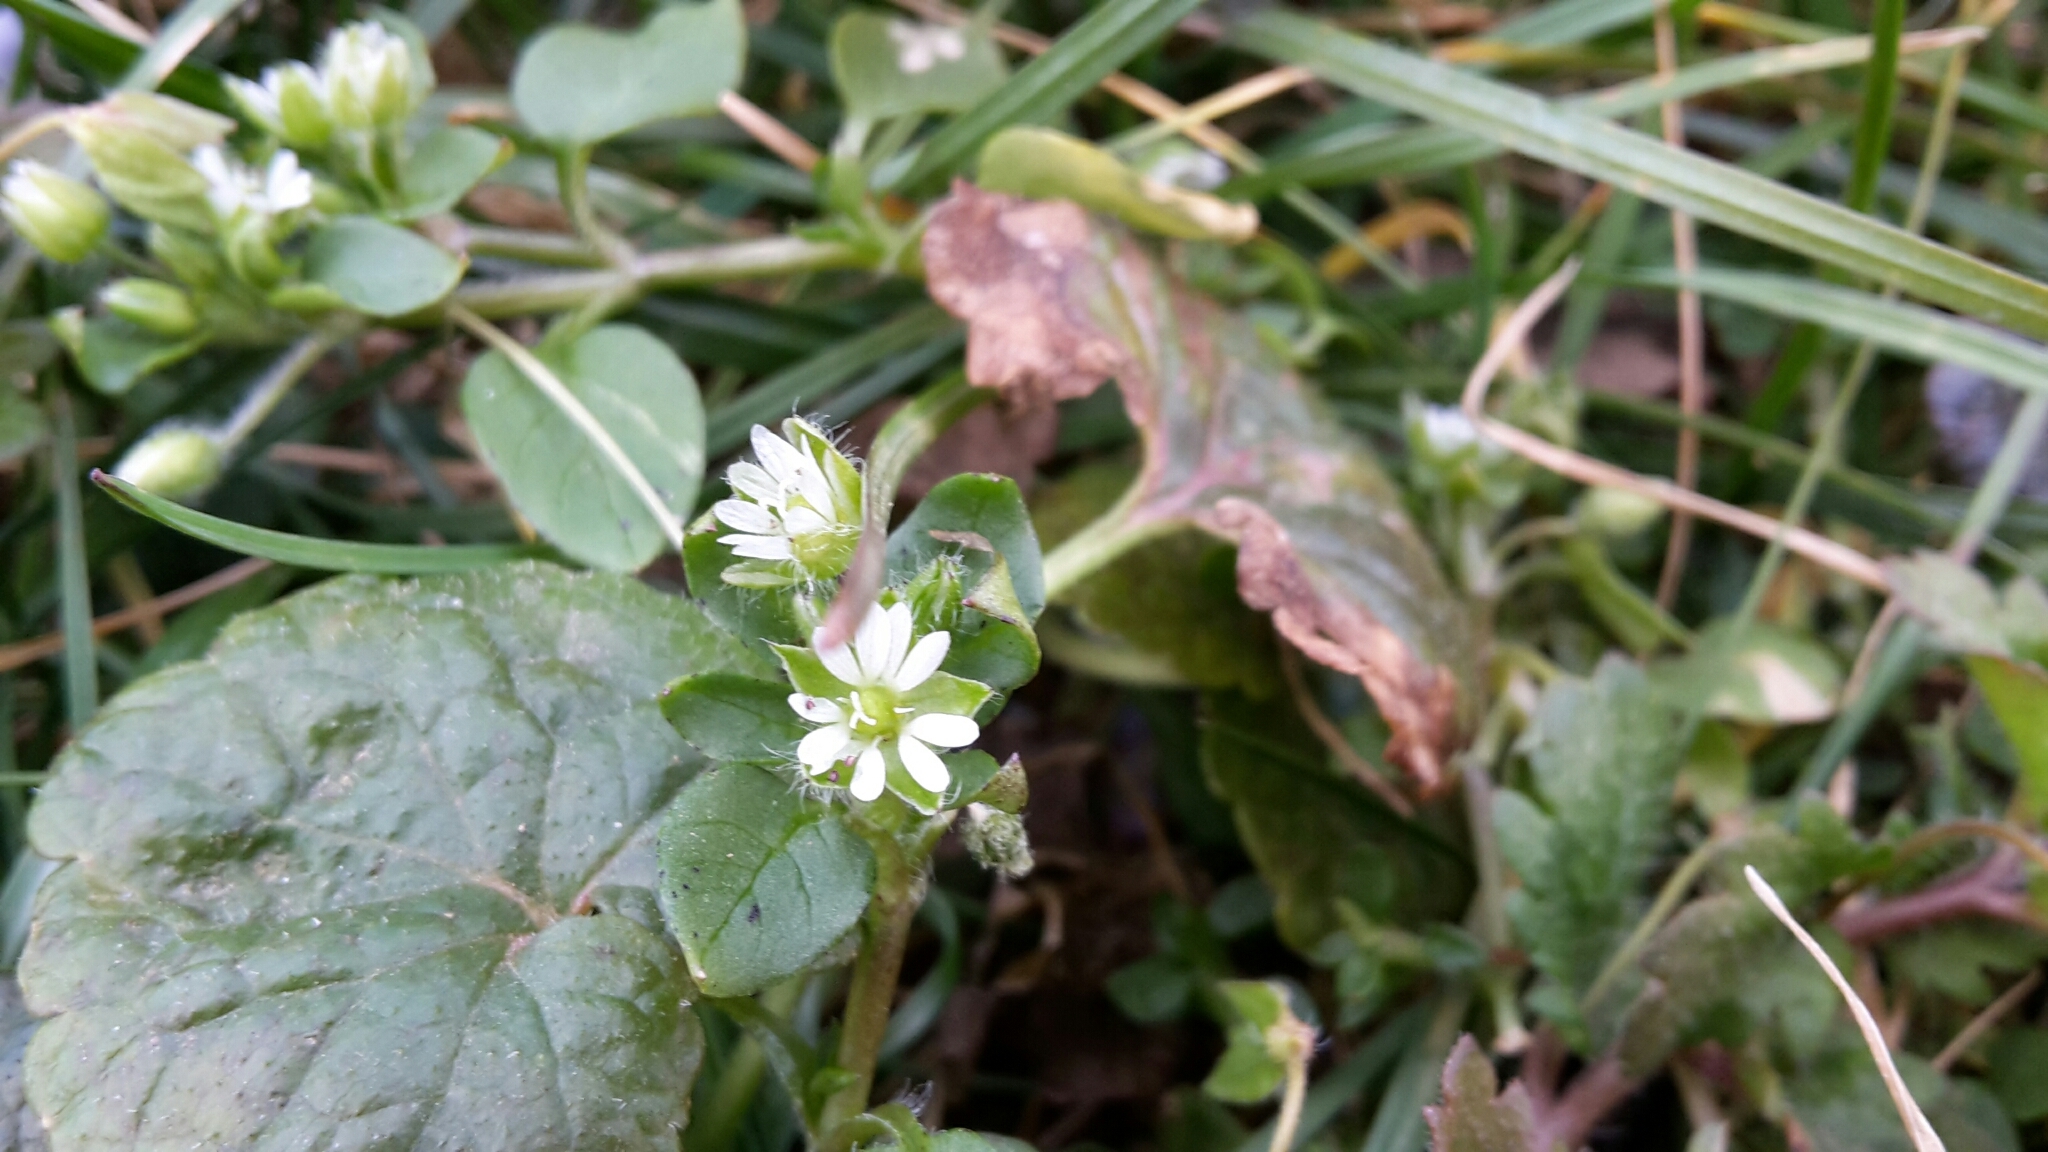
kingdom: Plantae
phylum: Tracheophyta
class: Magnoliopsida
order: Caryophyllales
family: Caryophyllaceae
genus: Stellaria
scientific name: Stellaria media
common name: Common chickweed
